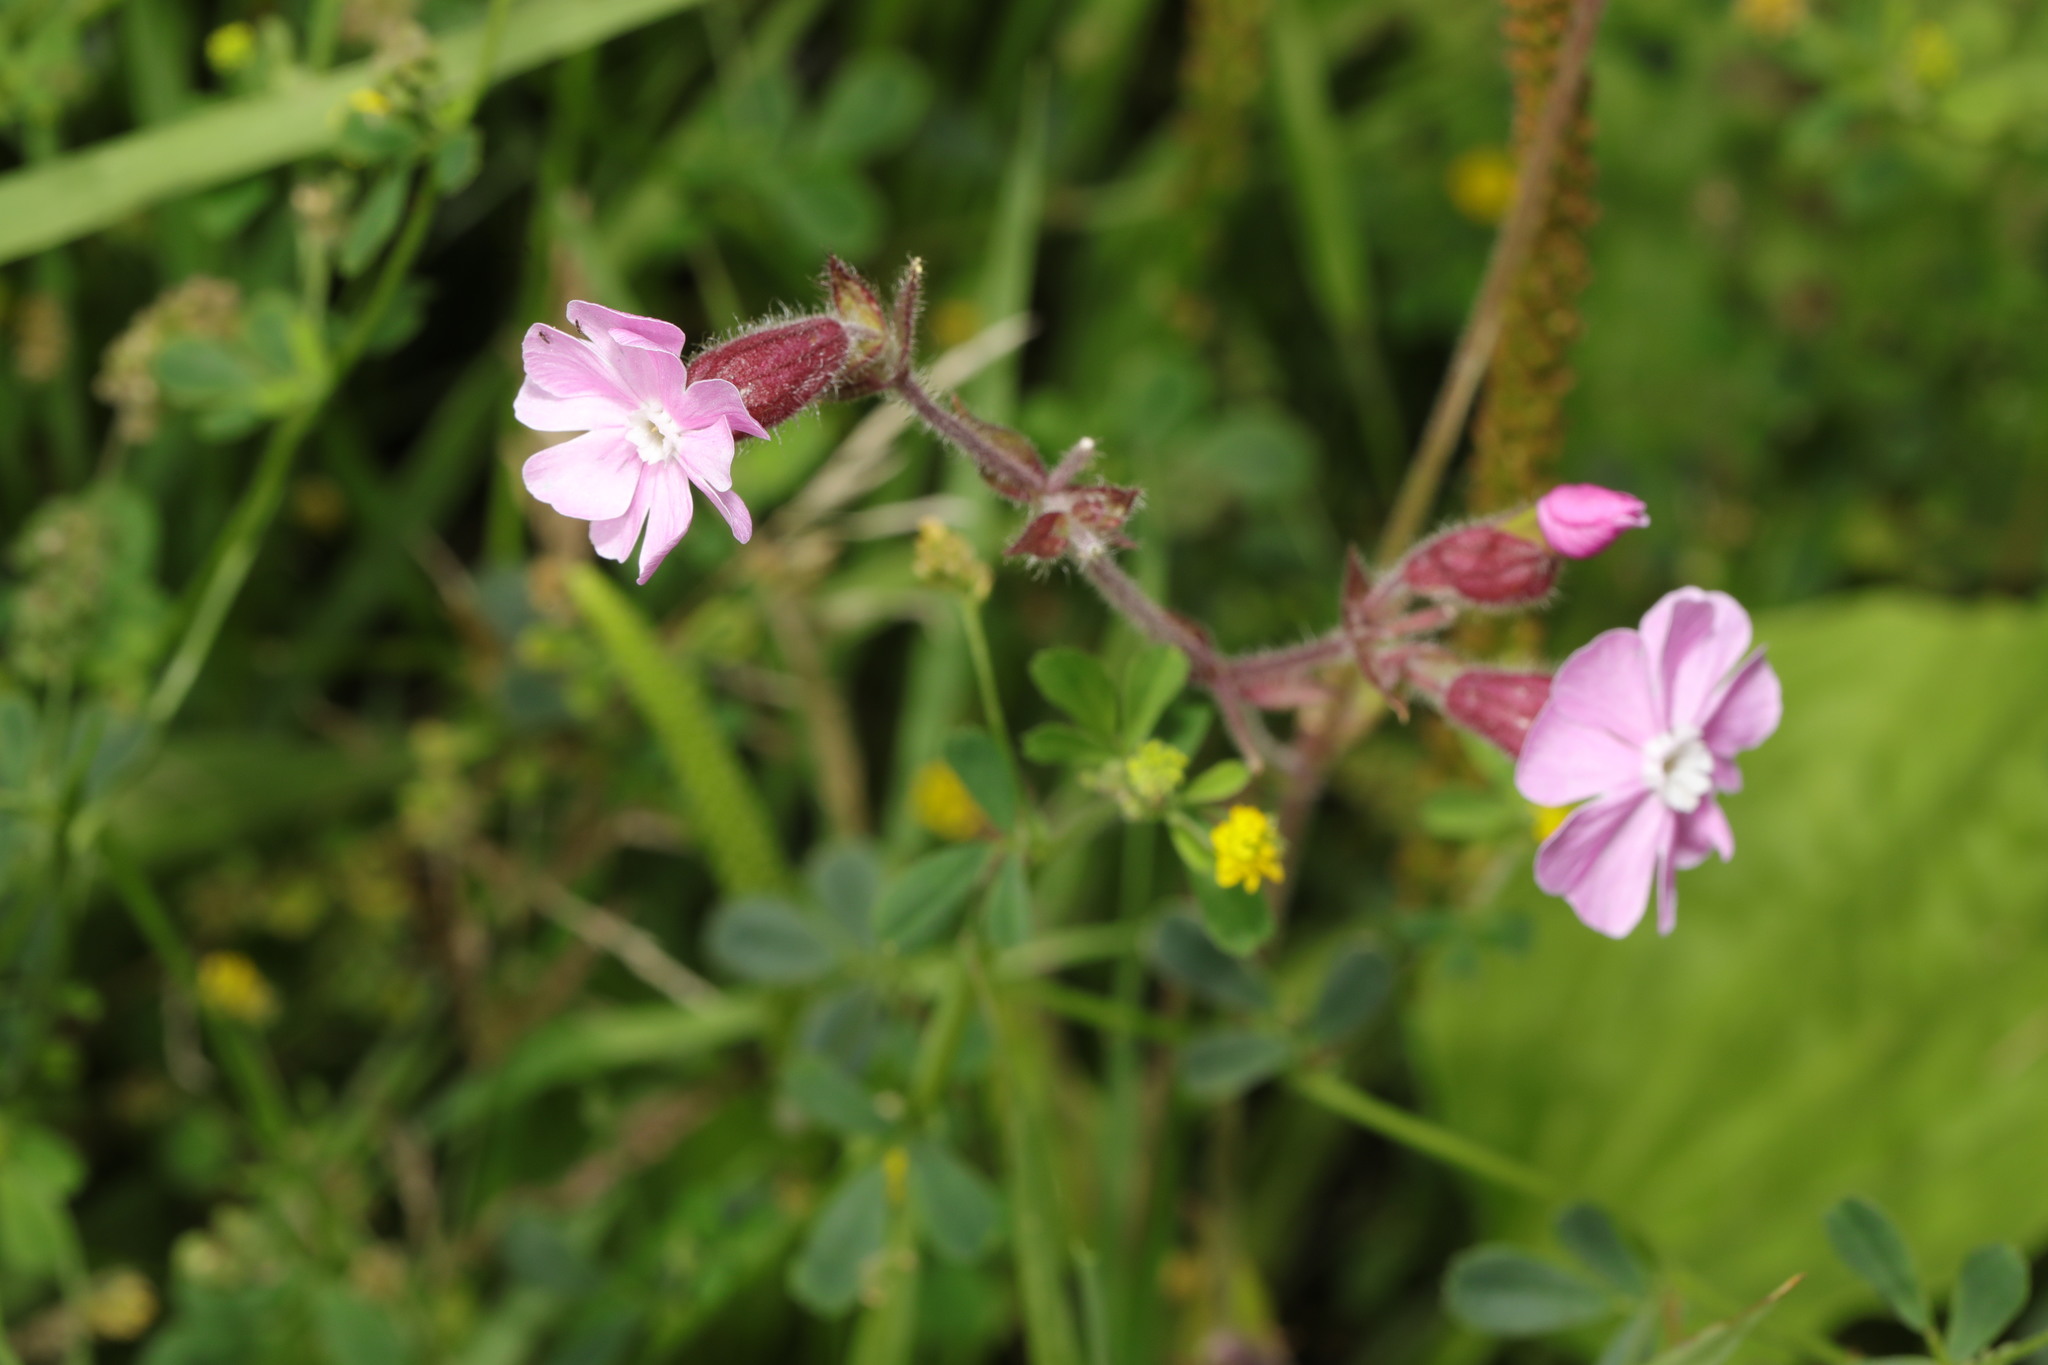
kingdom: Plantae
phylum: Tracheophyta
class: Magnoliopsida
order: Caryophyllales
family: Caryophyllaceae
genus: Silene
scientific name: Silene dioica
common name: Red campion
